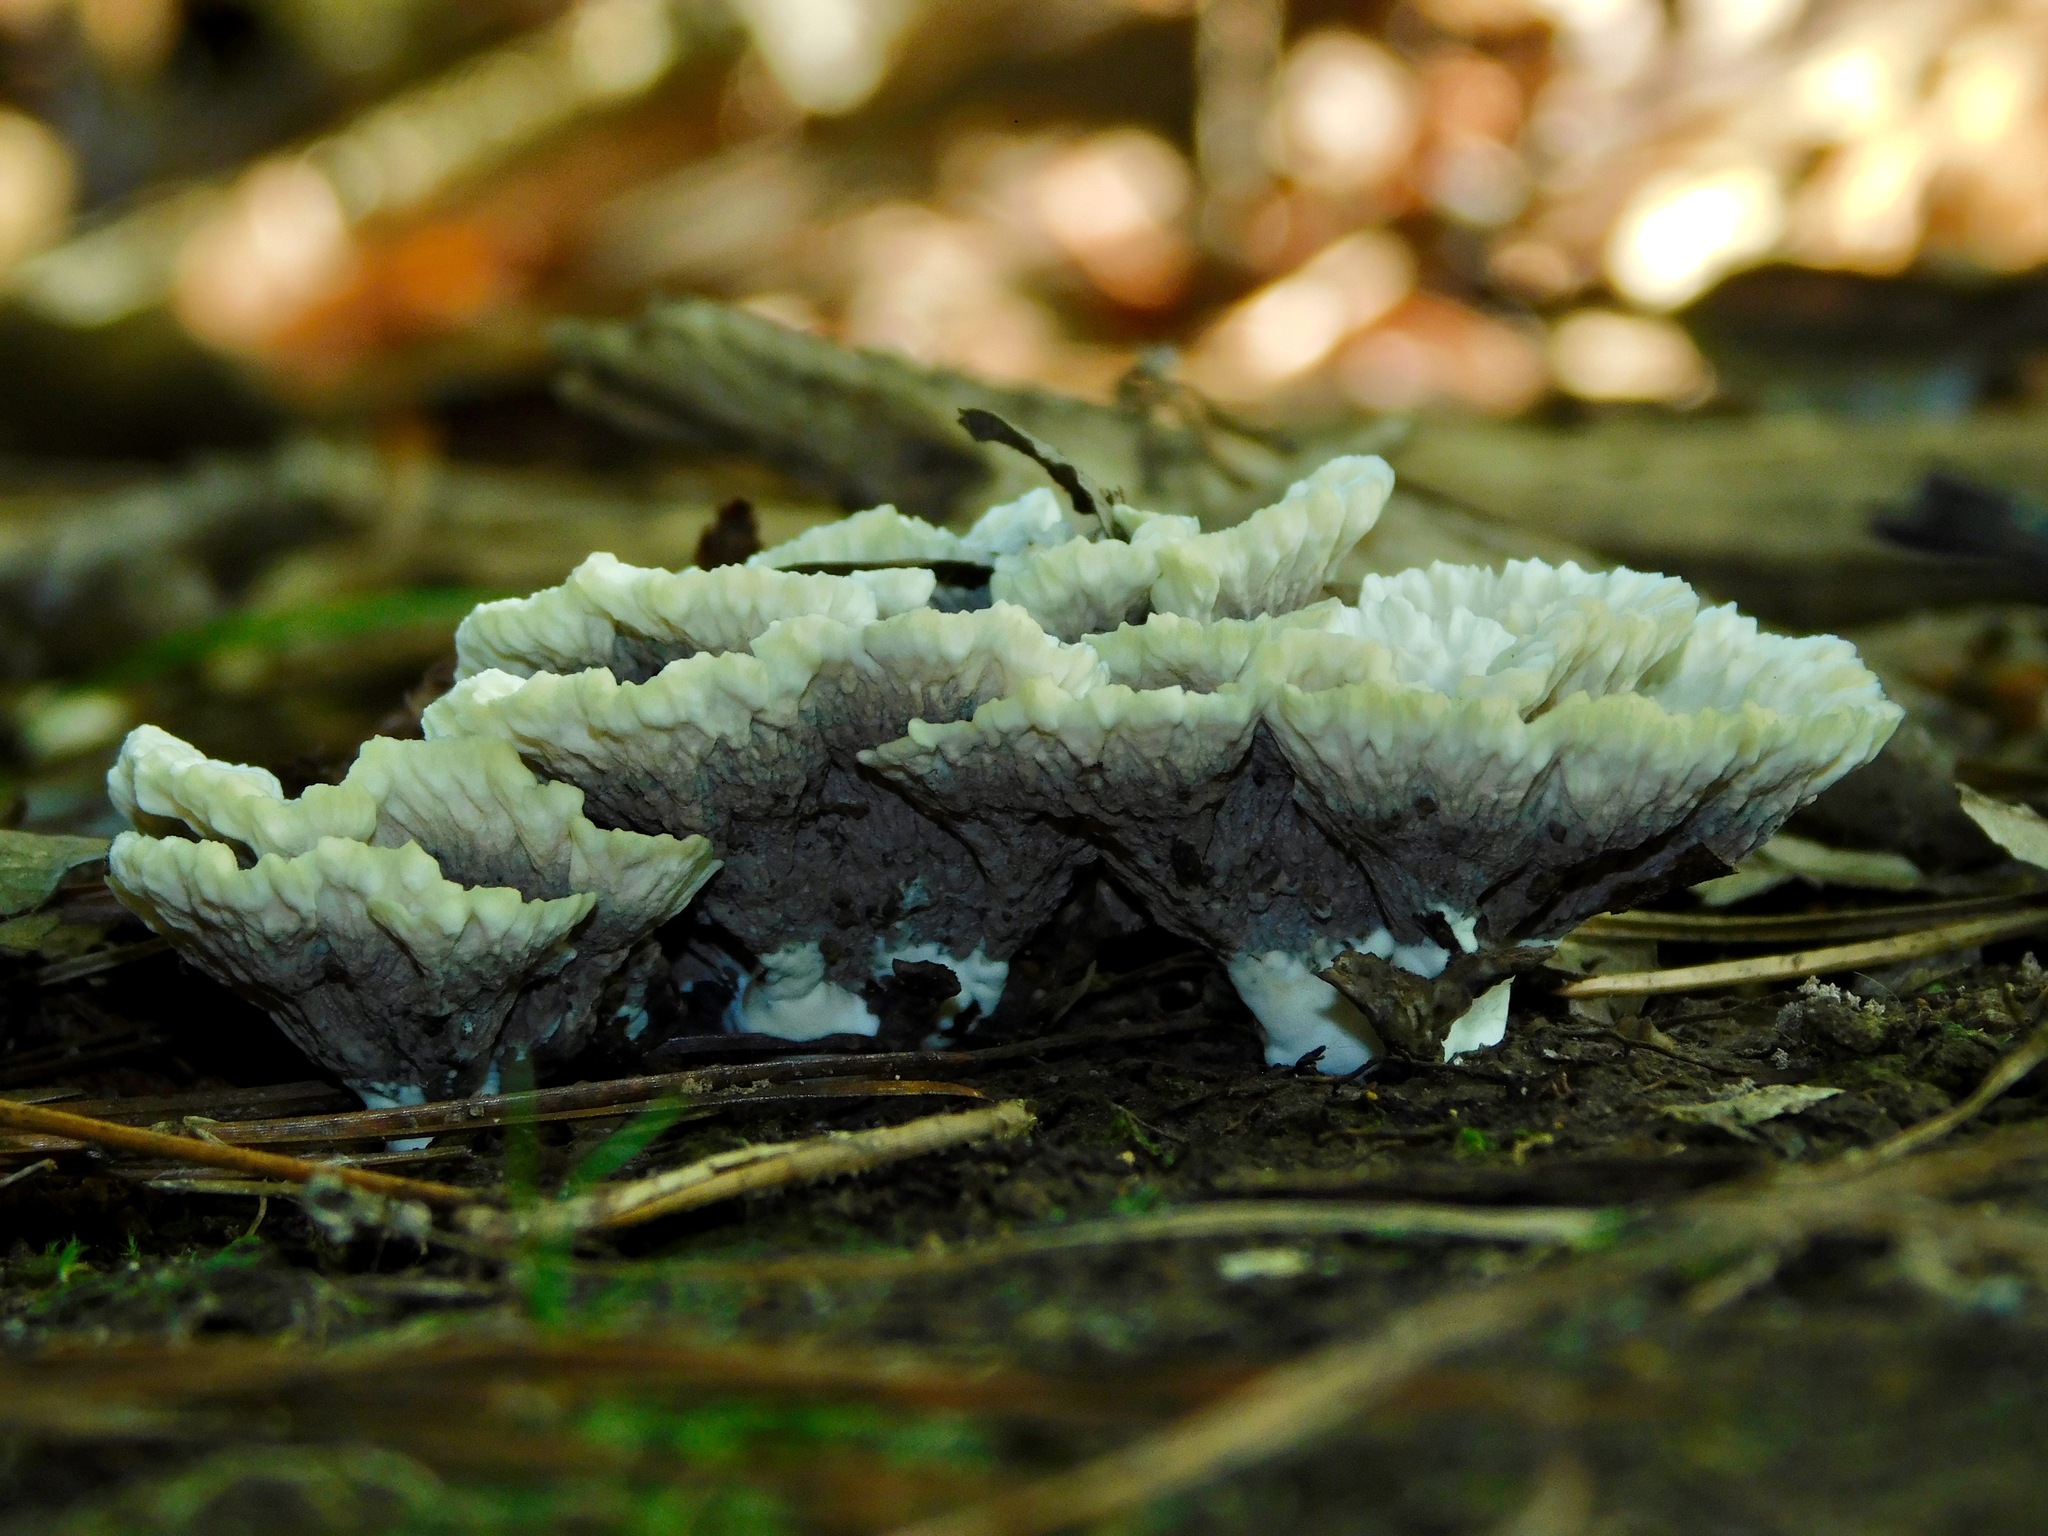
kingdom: Fungi
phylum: Basidiomycota
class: Agaricomycetes
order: Thelephorales
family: Thelephoraceae
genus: Thelephora
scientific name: Thelephora vialis
